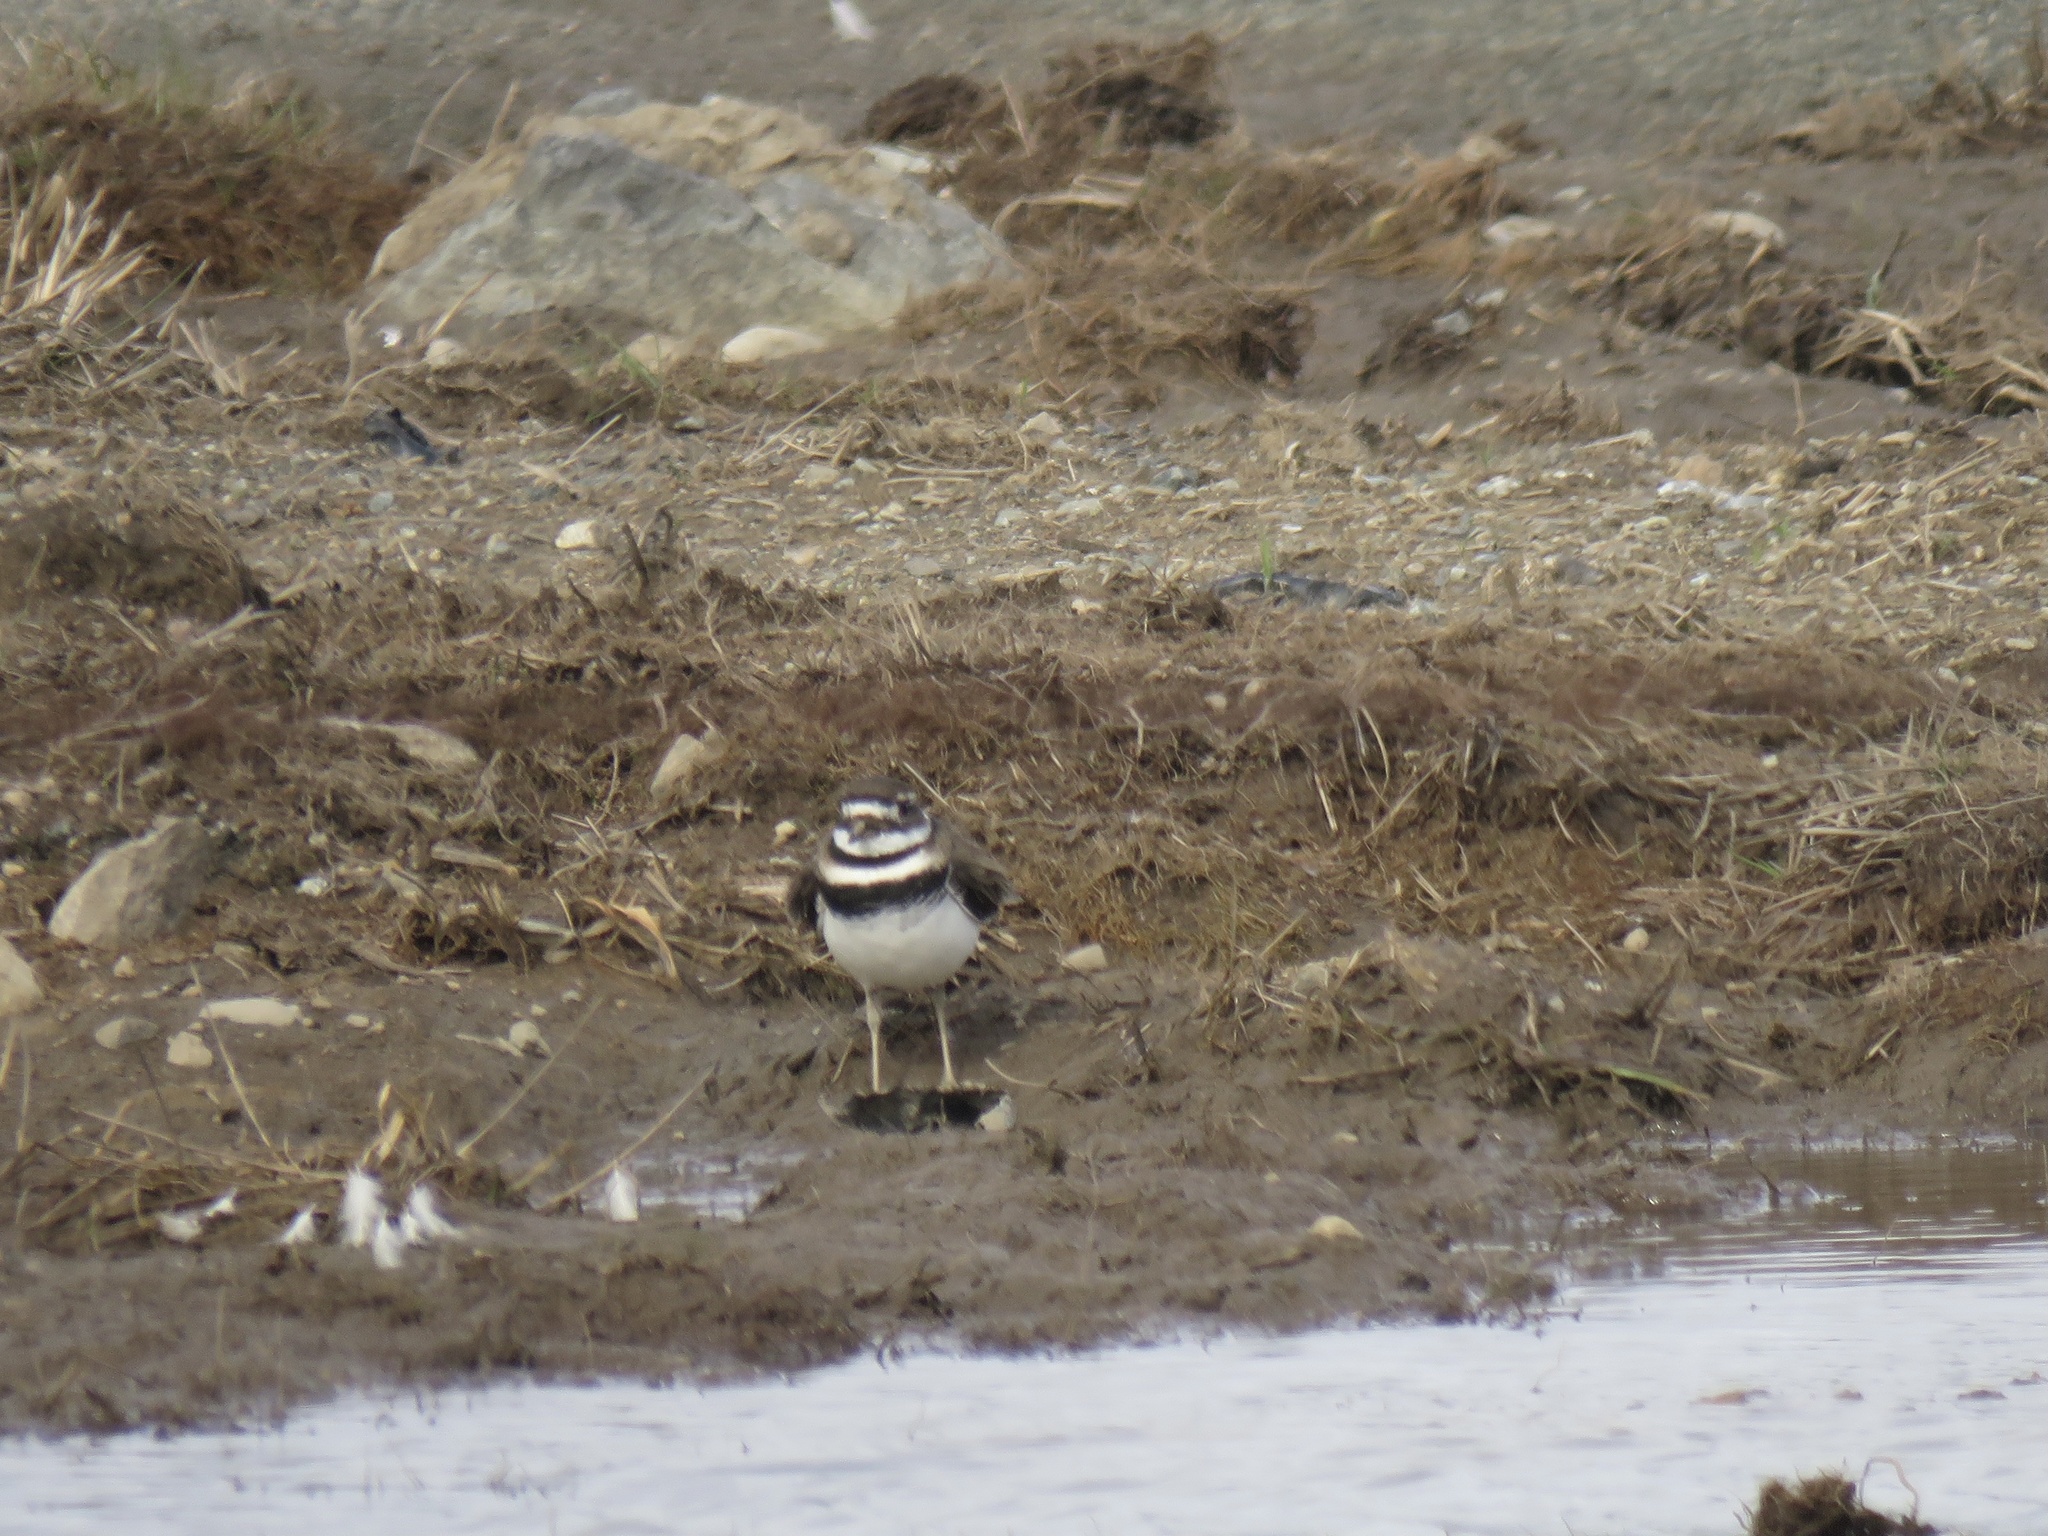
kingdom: Animalia
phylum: Chordata
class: Aves
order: Charadriiformes
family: Charadriidae
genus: Charadrius
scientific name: Charadrius vociferus
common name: Killdeer
